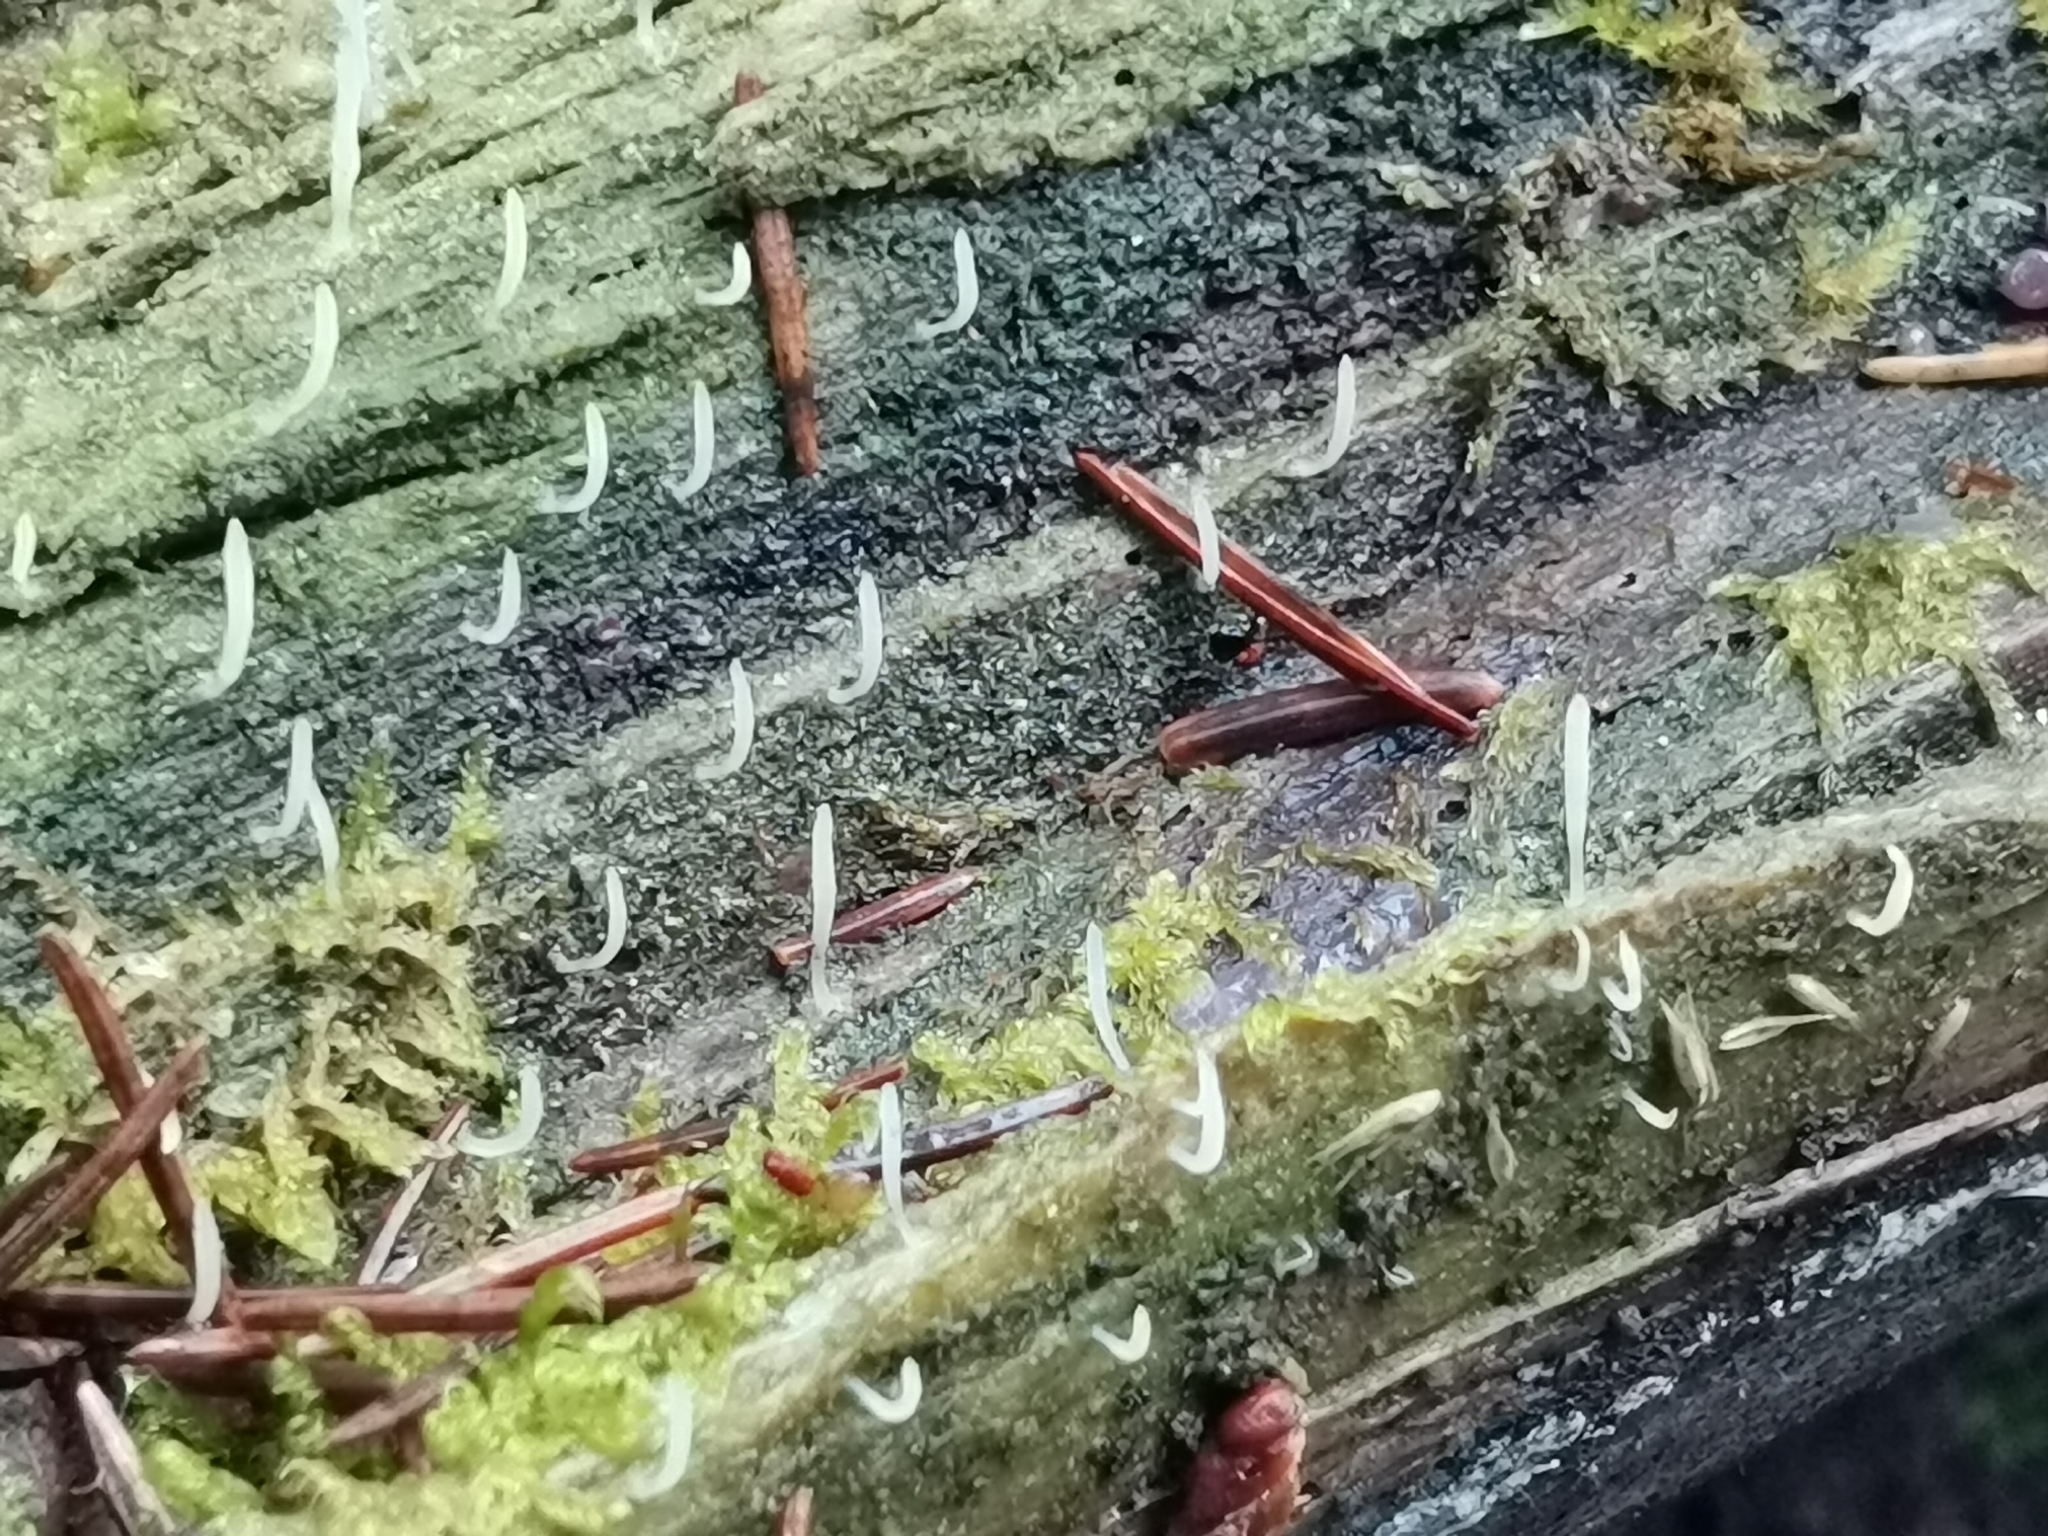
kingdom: Fungi
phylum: Basidiomycota
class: Agaricomycetes
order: Cantharellales
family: Hydnaceae
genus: Multiclavula
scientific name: Multiclavula mucida
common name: White green-algae coral
